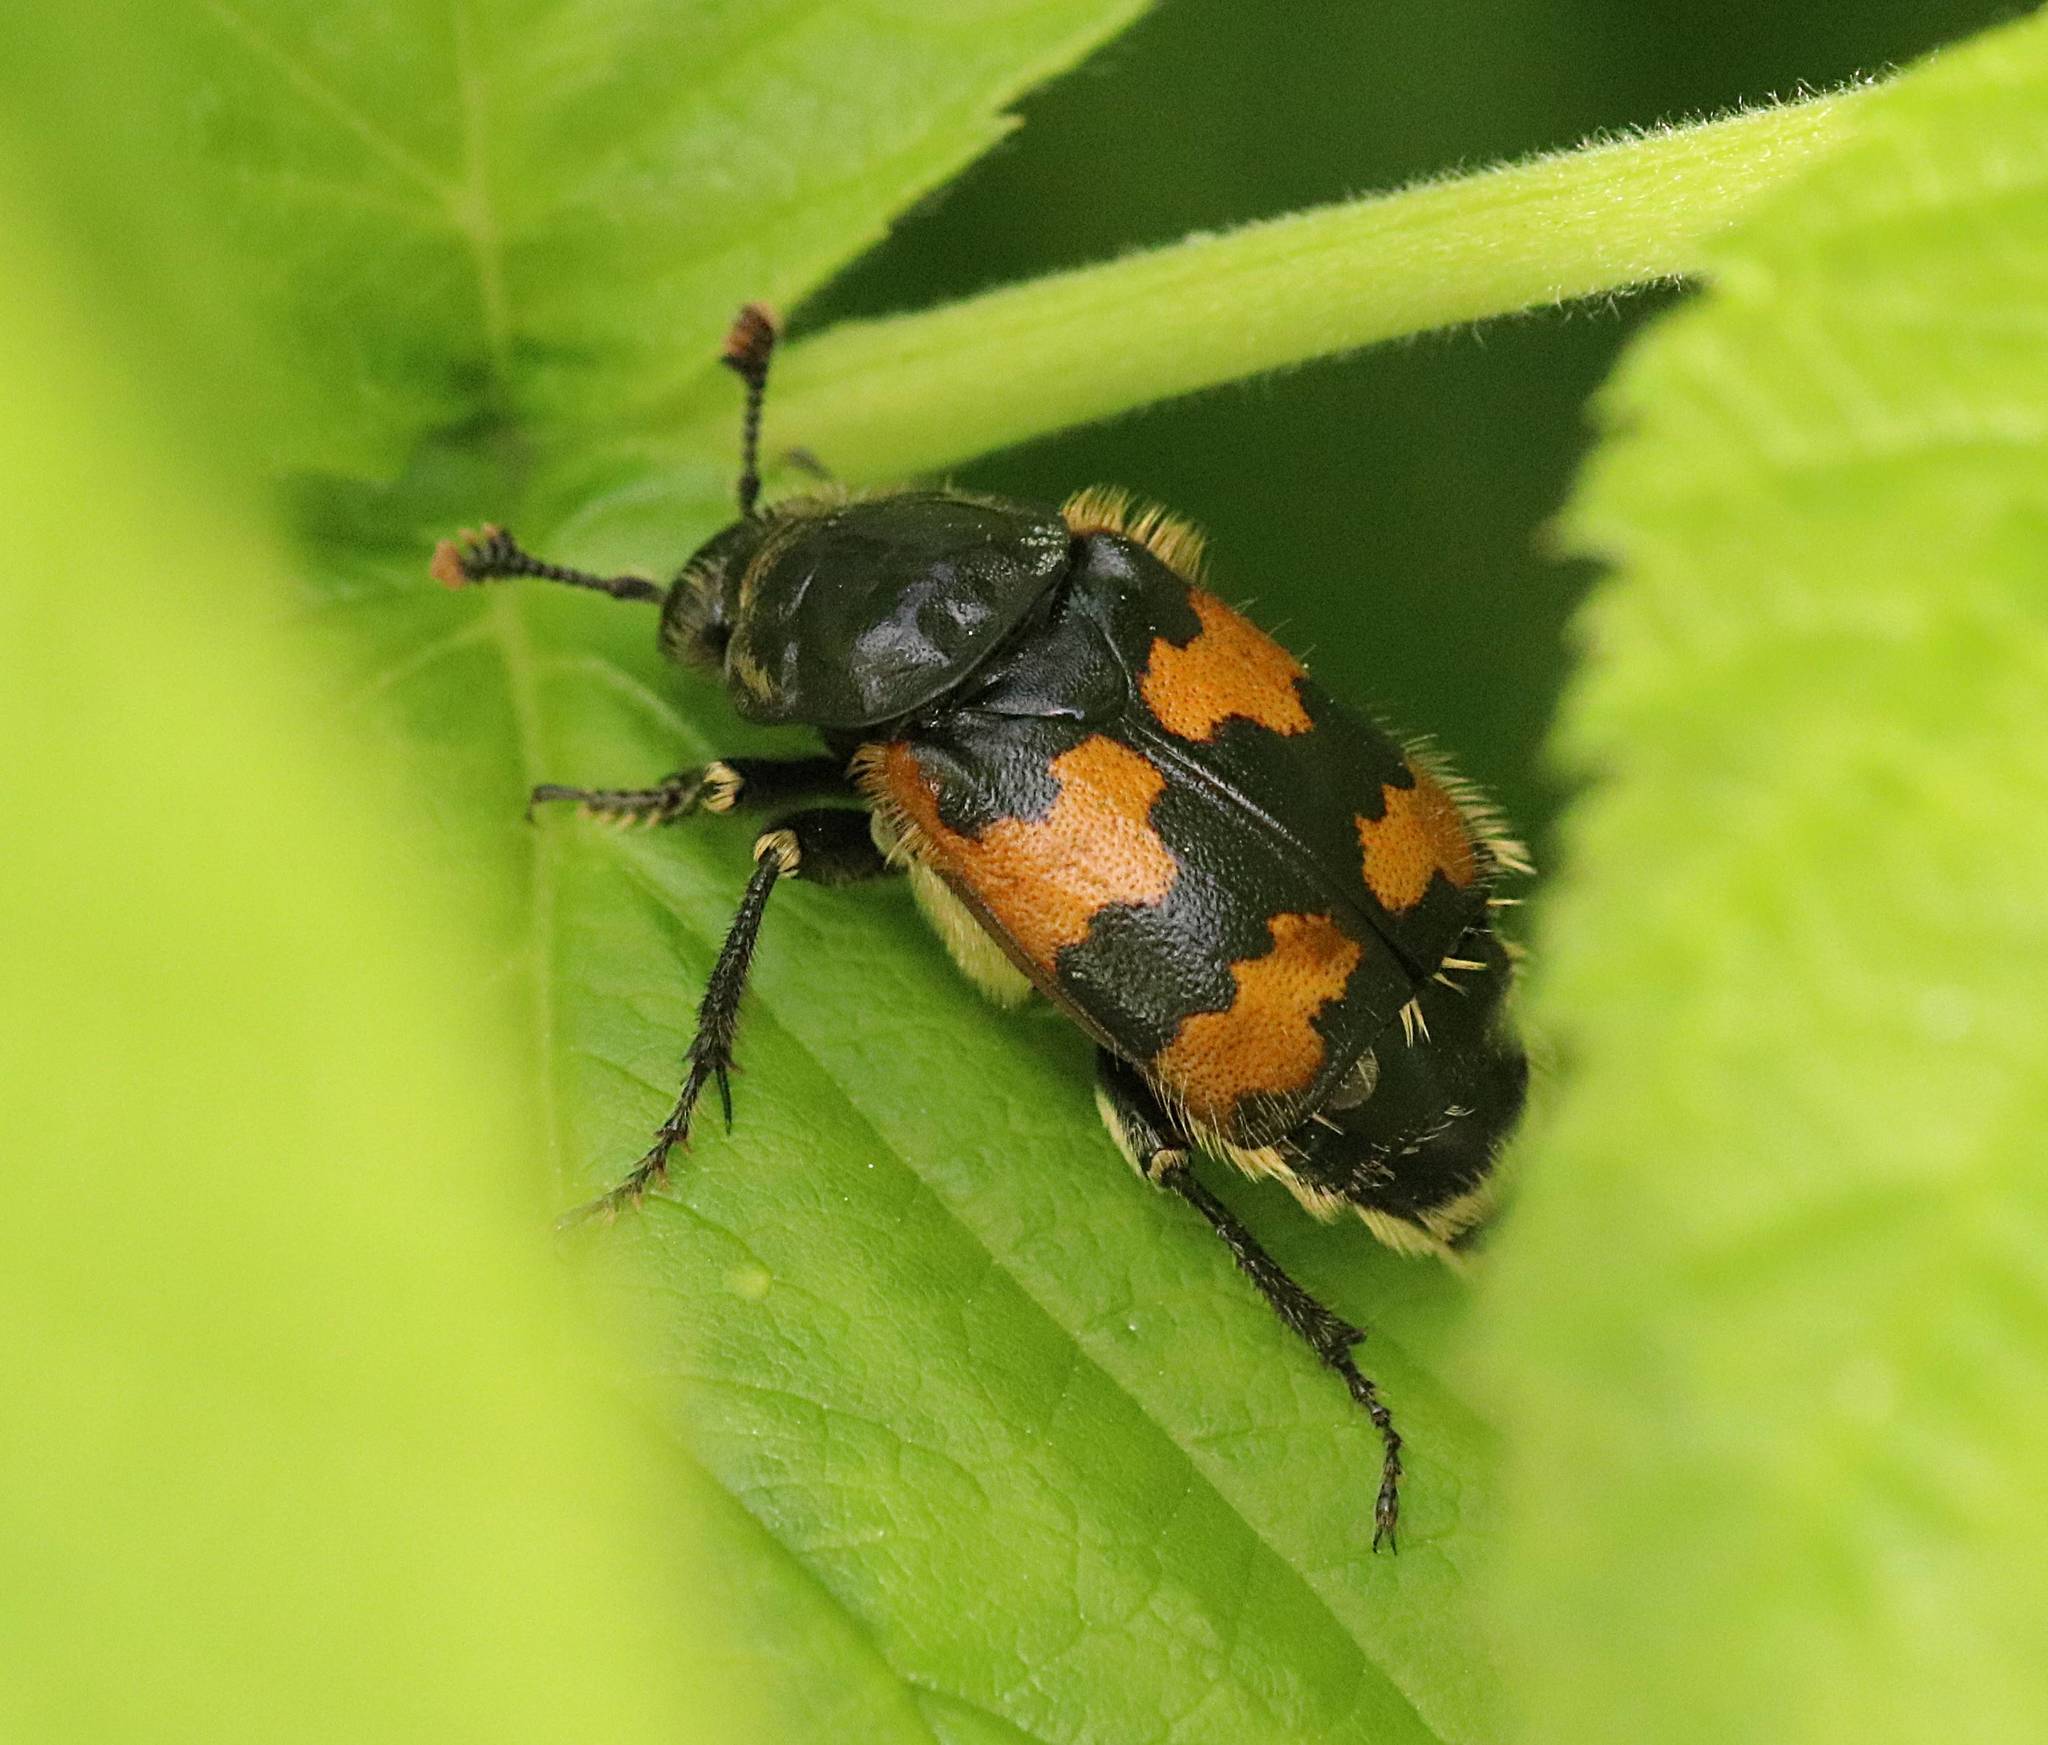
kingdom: Animalia
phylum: Arthropoda
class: Insecta
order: Coleoptera
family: Staphylinidae
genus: Nicrophorus
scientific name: Nicrophorus vespillo
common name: Common burying beetle
